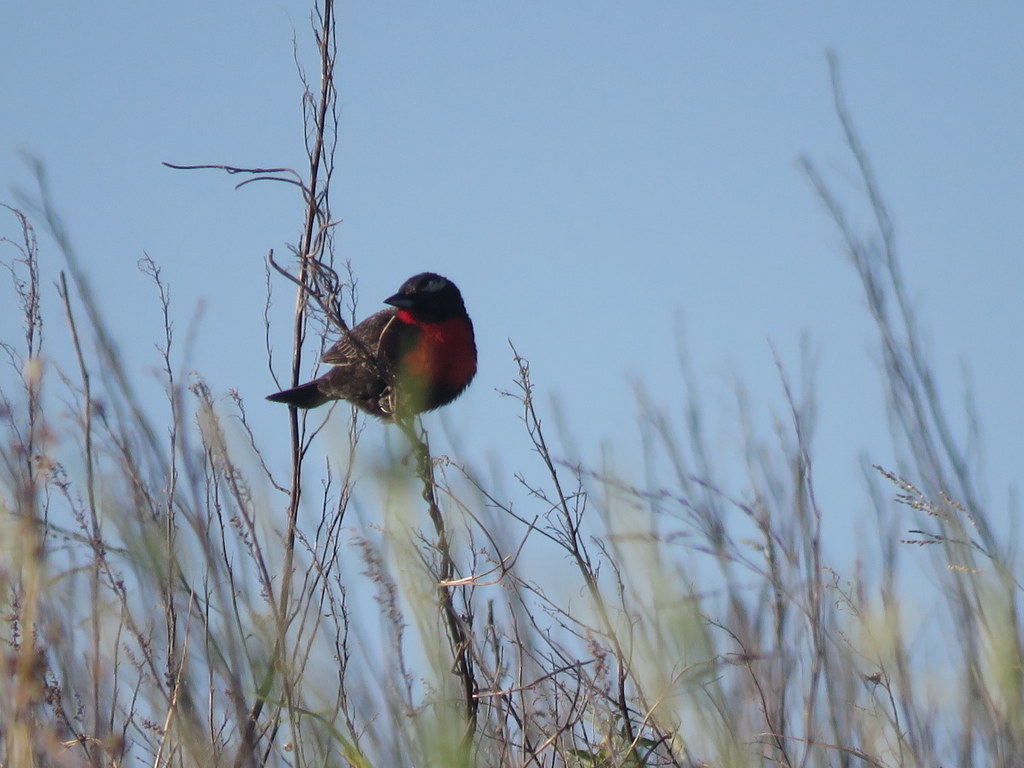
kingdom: Animalia
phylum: Chordata
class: Aves
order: Passeriformes
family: Icteridae
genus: Sturnella
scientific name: Sturnella superciliaris
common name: White-browed blackbird
